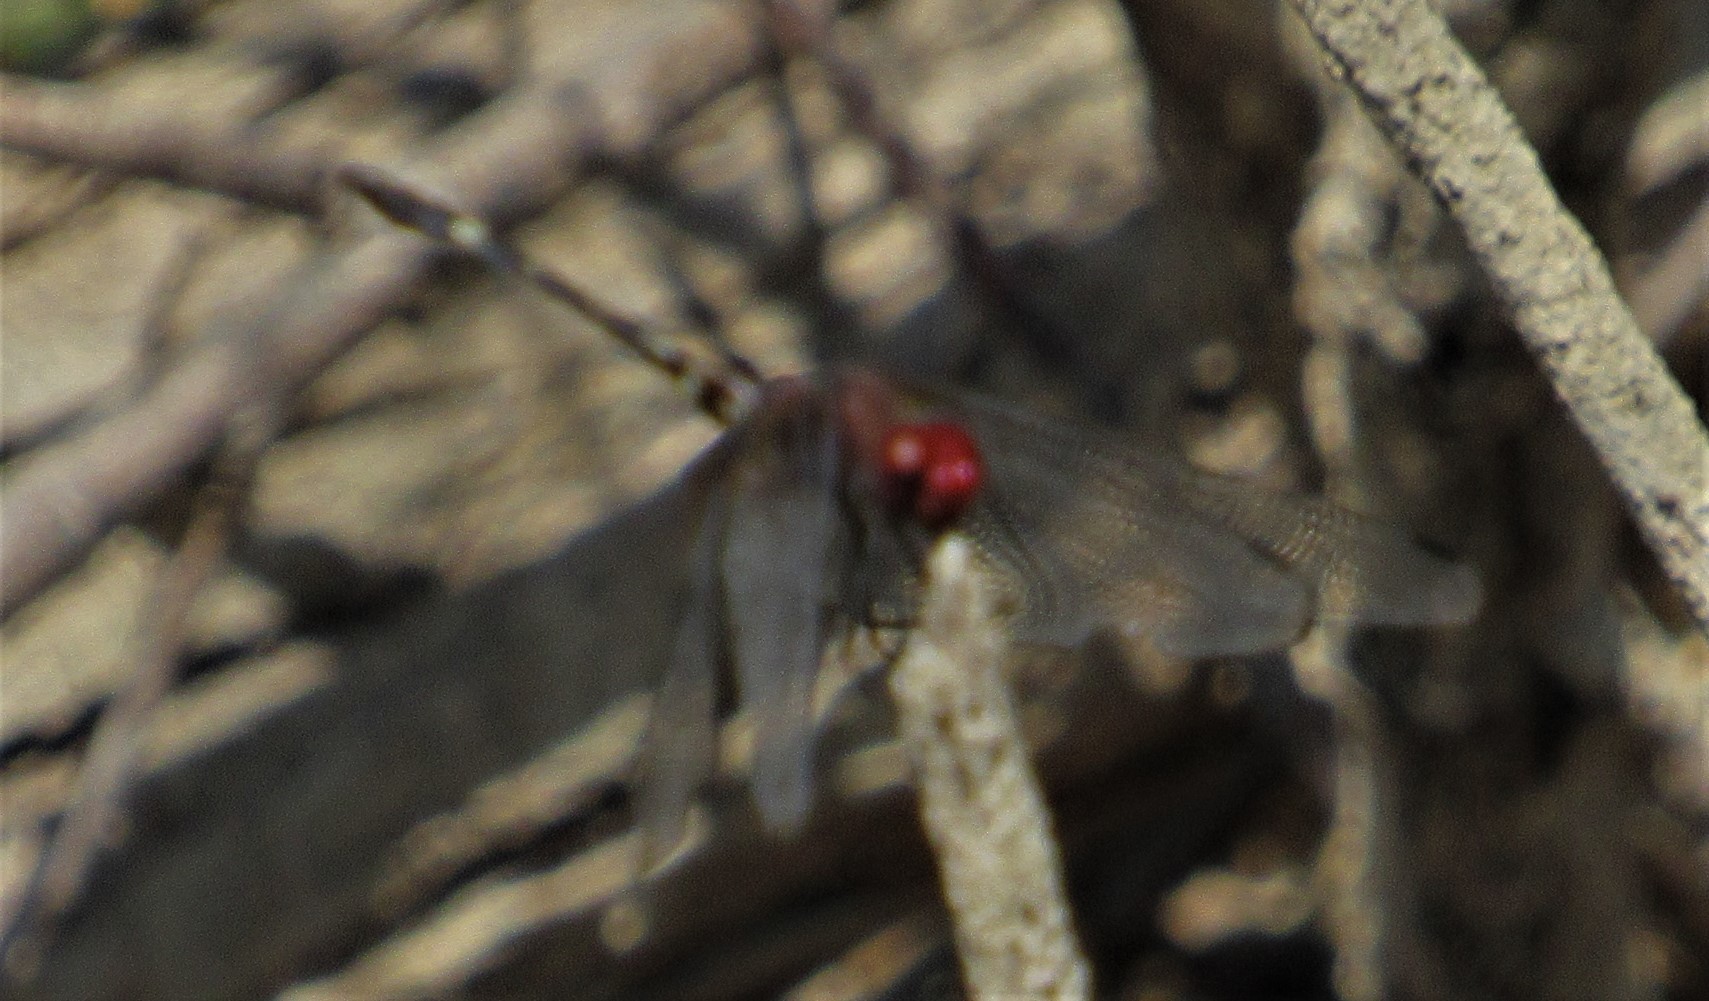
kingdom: Animalia
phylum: Arthropoda
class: Insecta
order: Odonata
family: Libellulidae
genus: Dythemis
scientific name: Dythemis fugax
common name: Checkered setwing
